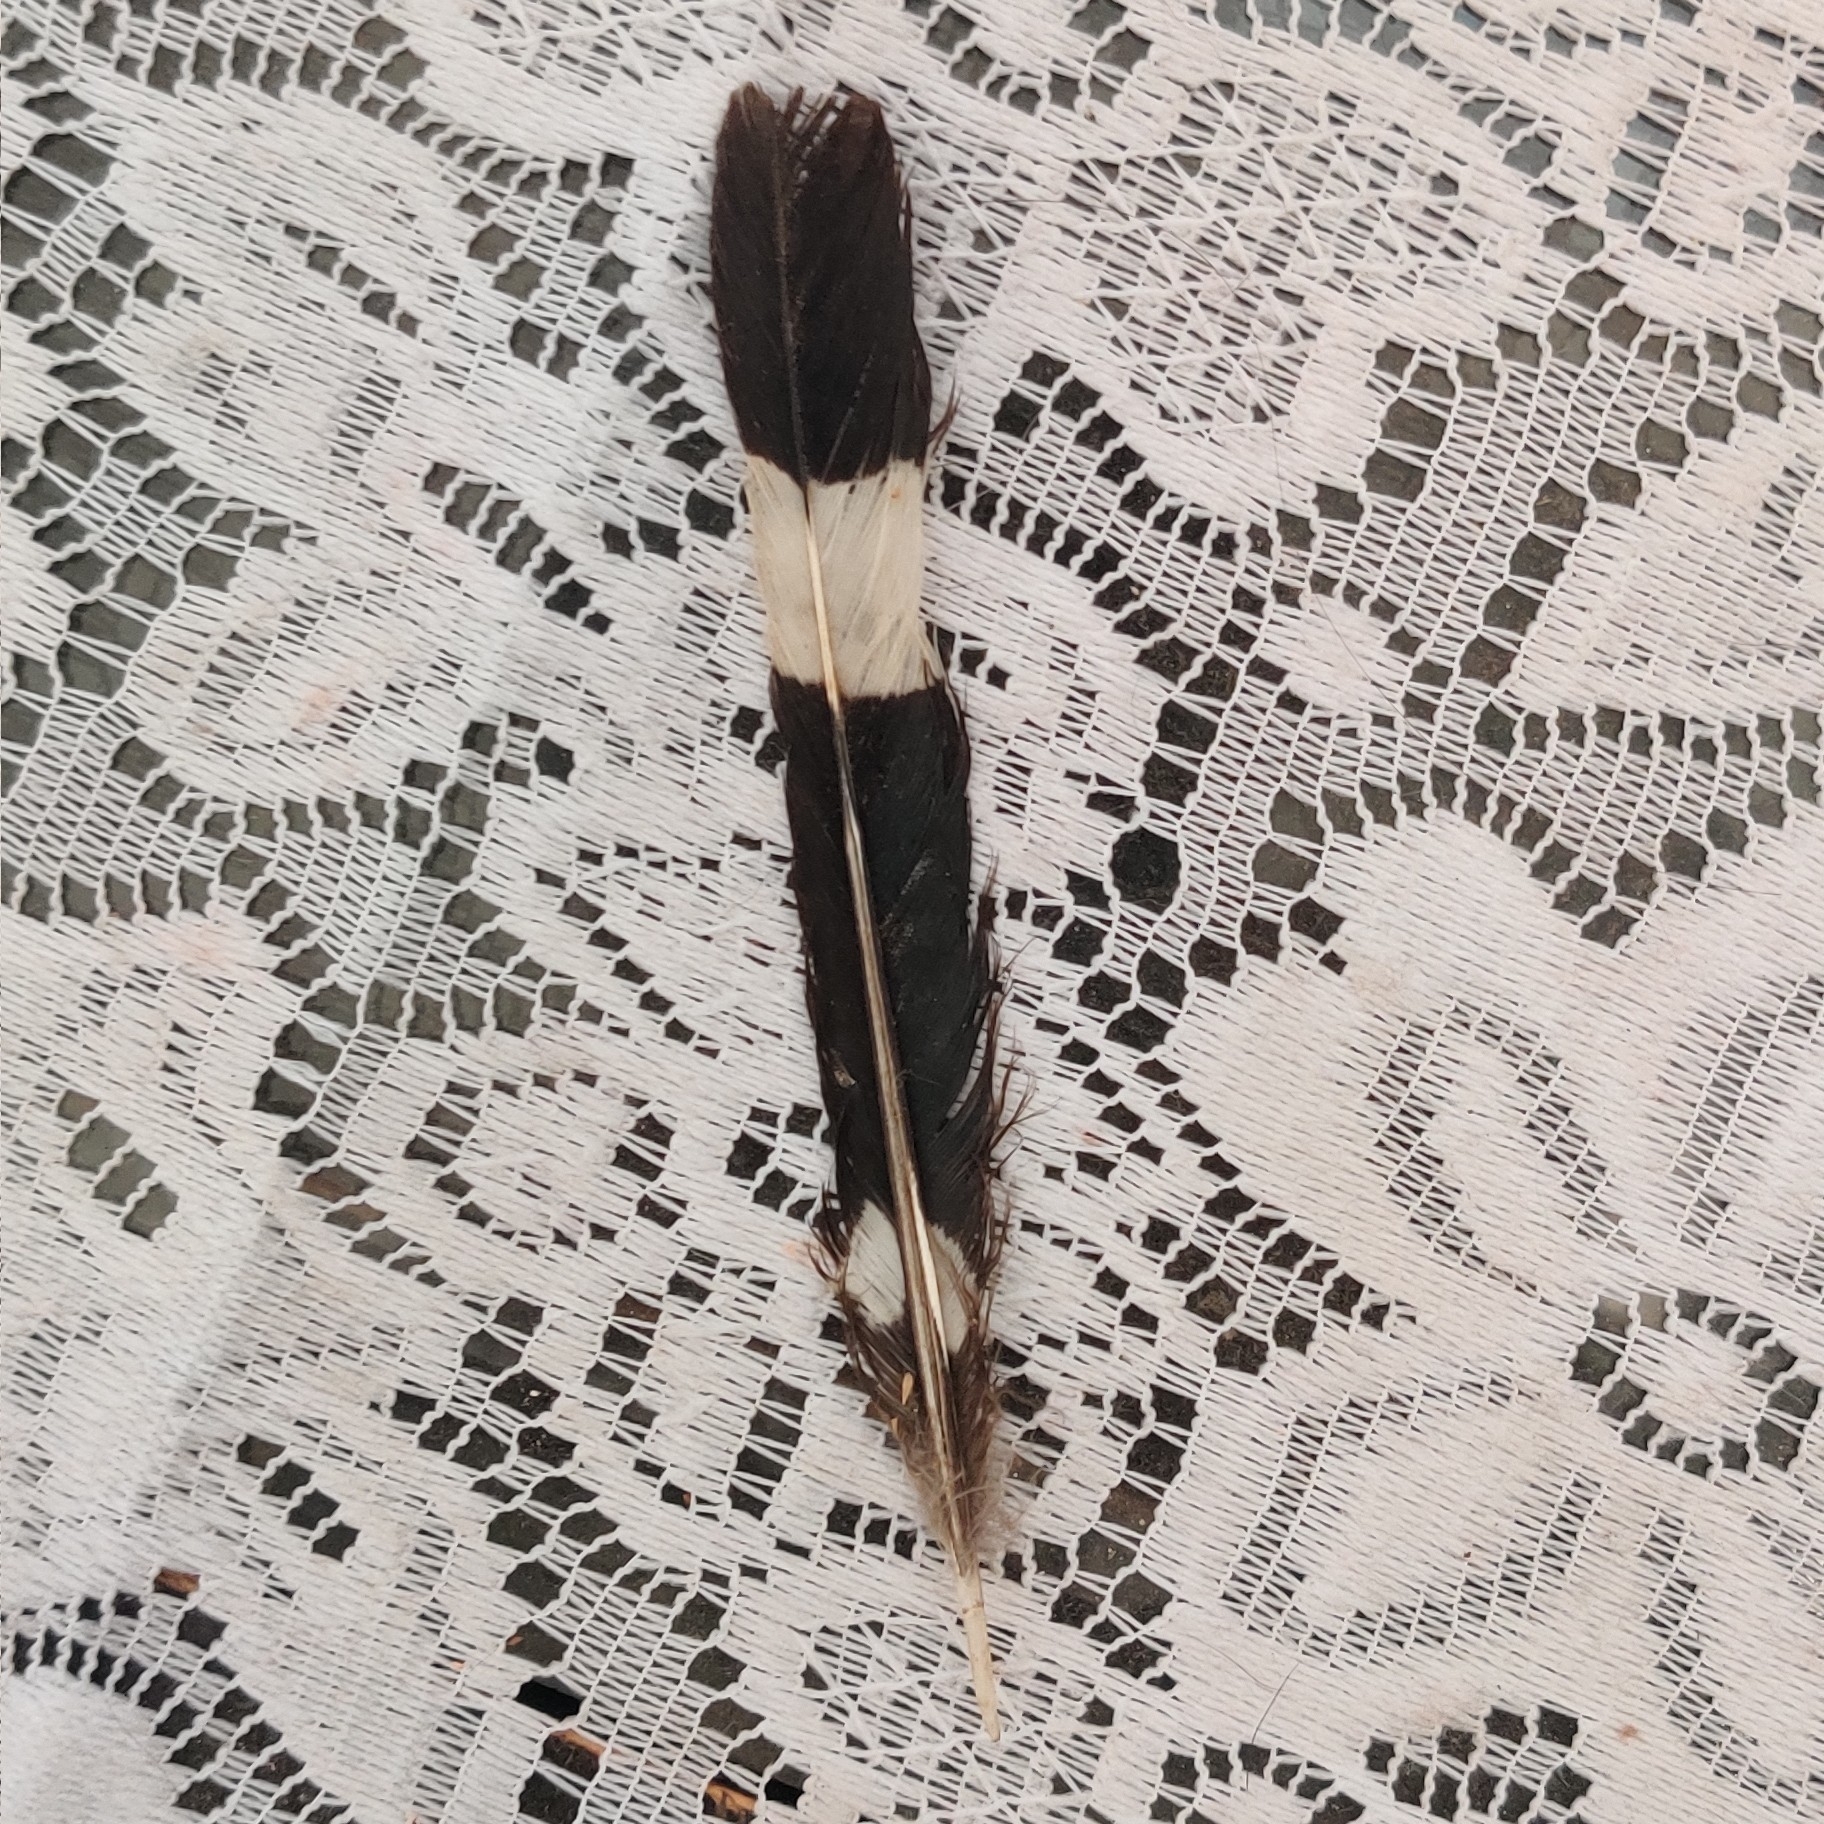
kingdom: Animalia
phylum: Chordata
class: Aves
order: Bucerotiformes
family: Upupidae
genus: Upupa
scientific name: Upupa epops
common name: Eurasian hoopoe
